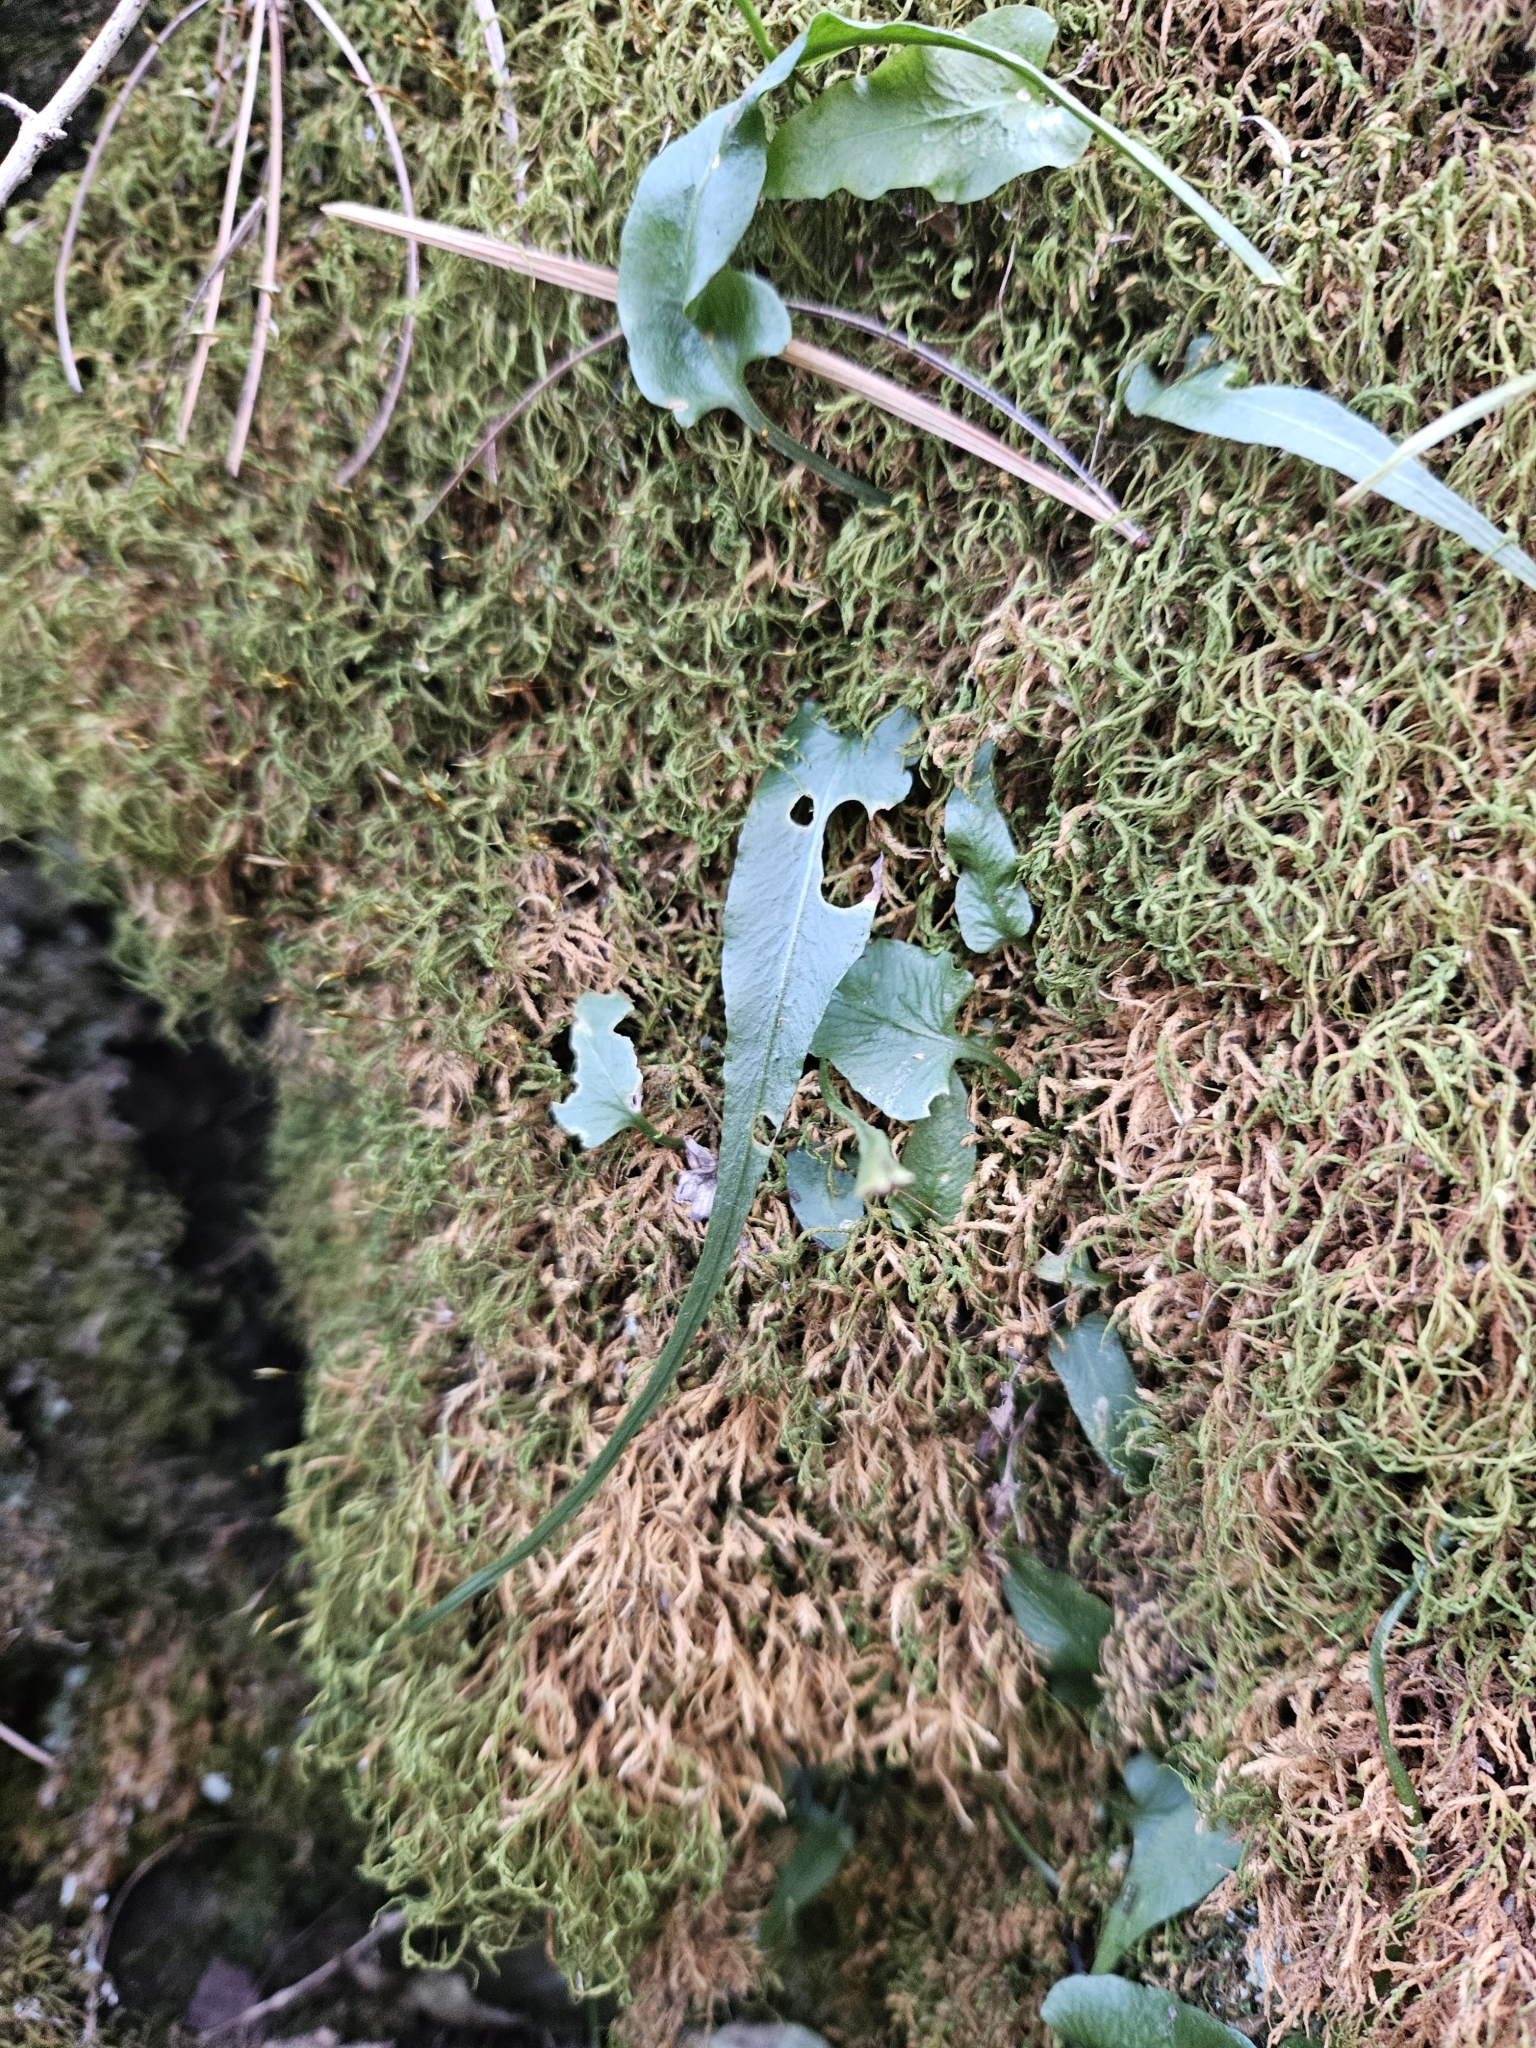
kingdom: Plantae
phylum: Tracheophyta
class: Polypodiopsida
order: Polypodiales
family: Aspleniaceae
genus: Asplenium
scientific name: Asplenium rhizophyllum
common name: Walking fern
